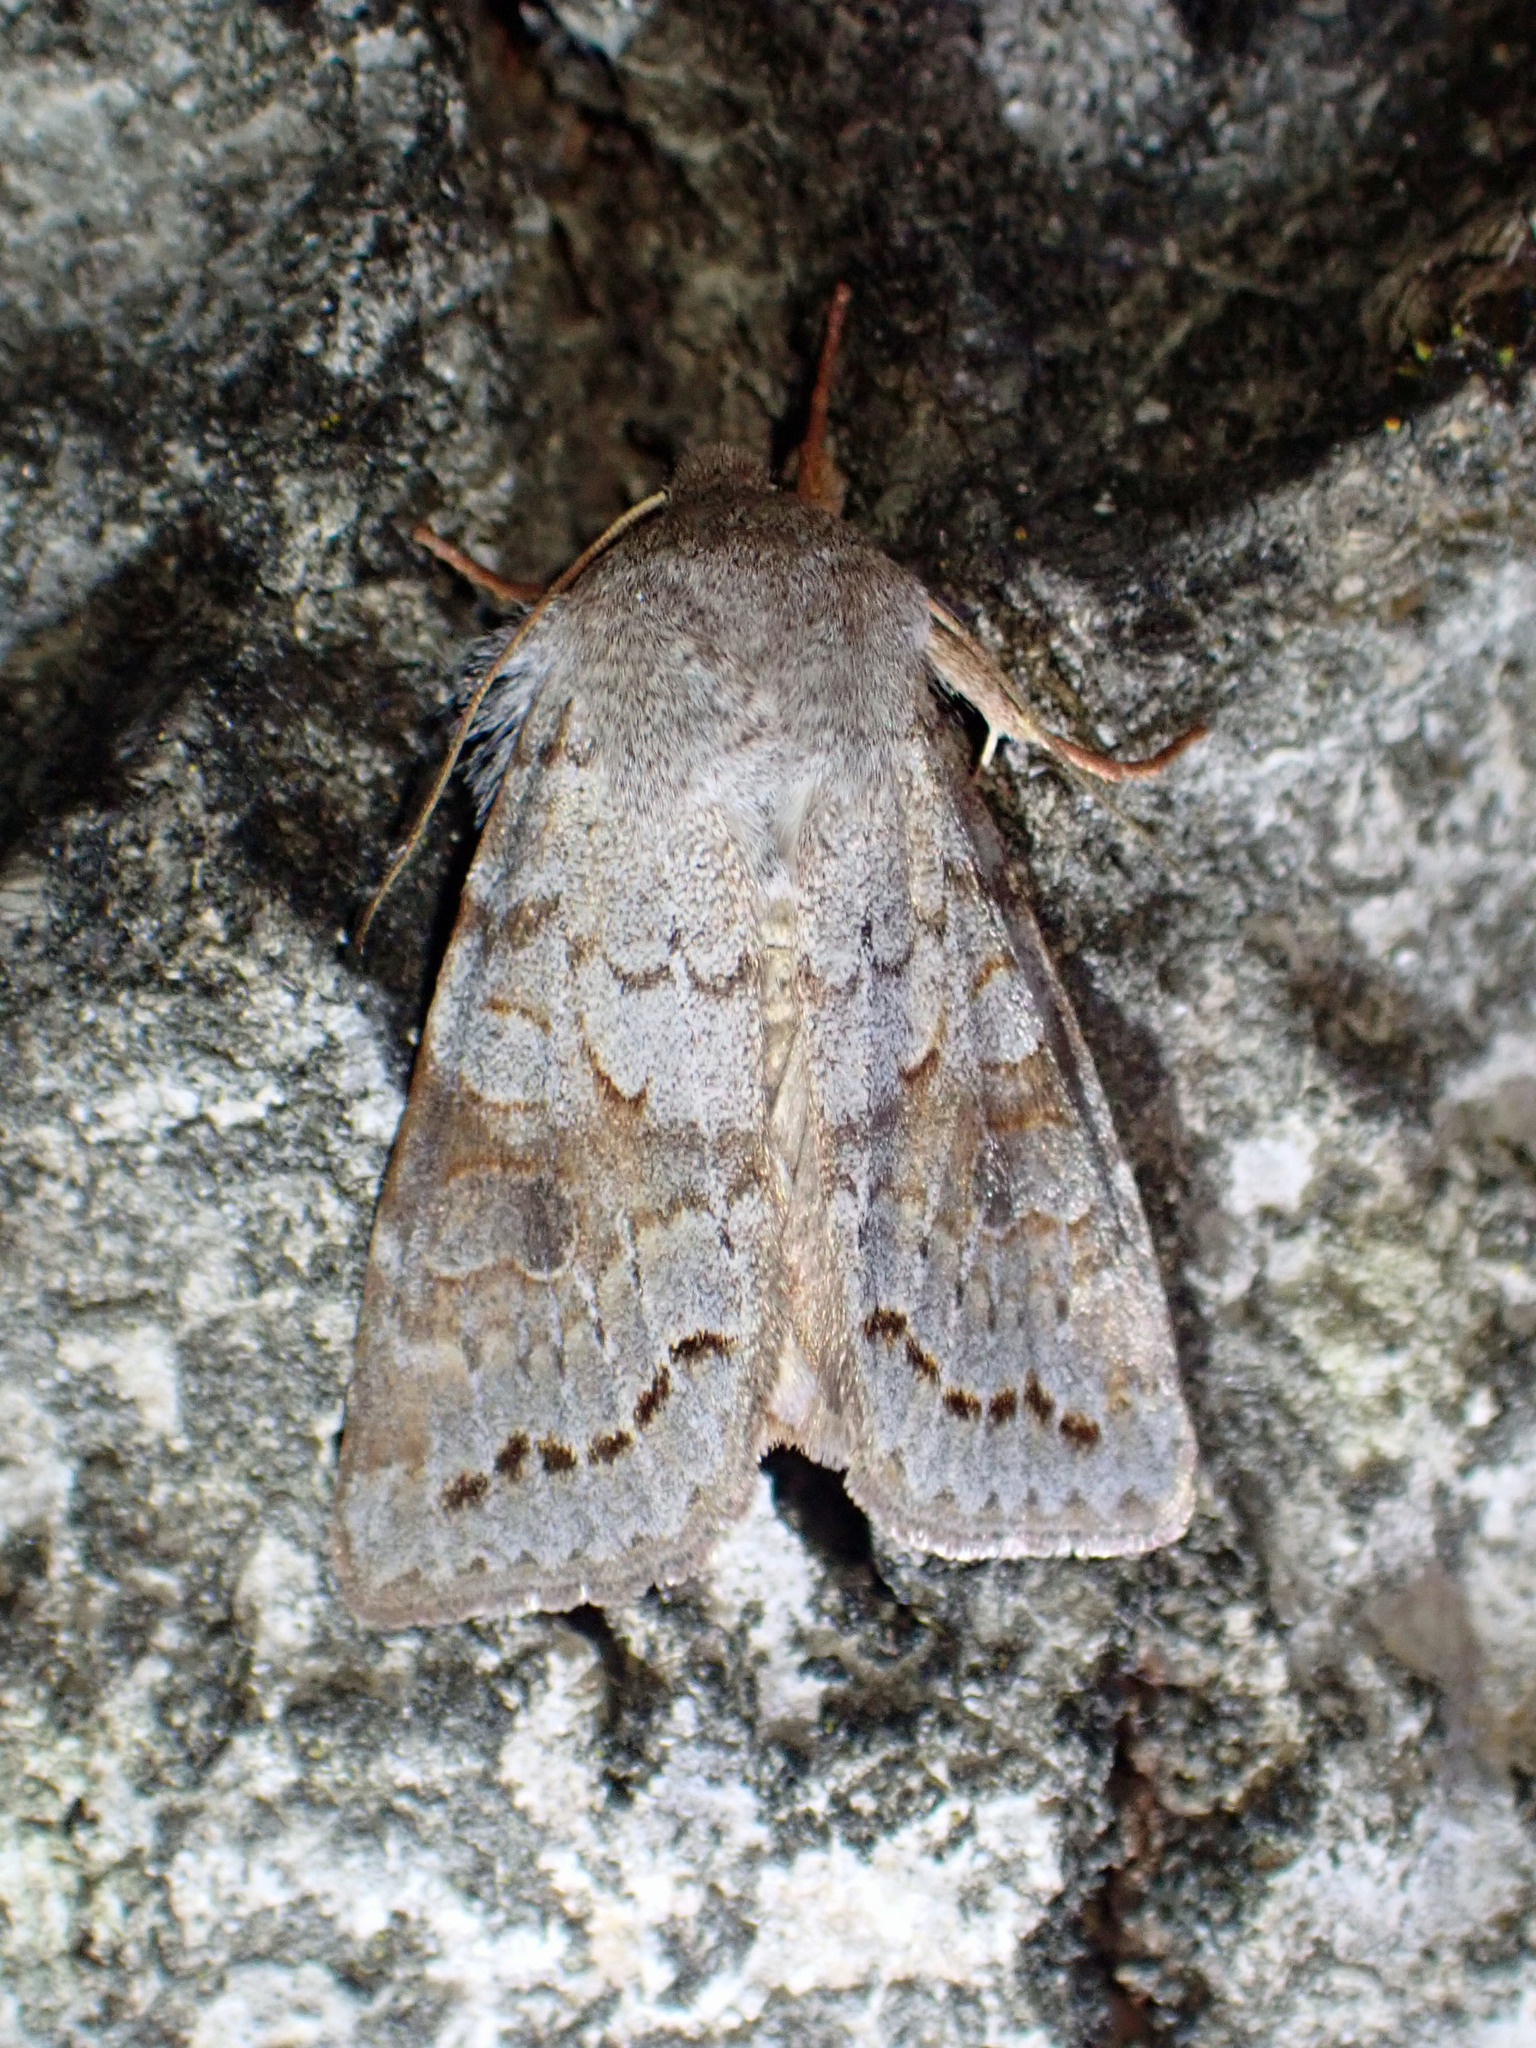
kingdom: Animalia
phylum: Arthropoda
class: Insecta
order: Lepidoptera
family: Noctuidae
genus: Orthosia
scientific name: Orthosia revicta
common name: Rusty whitesided caterpillar
